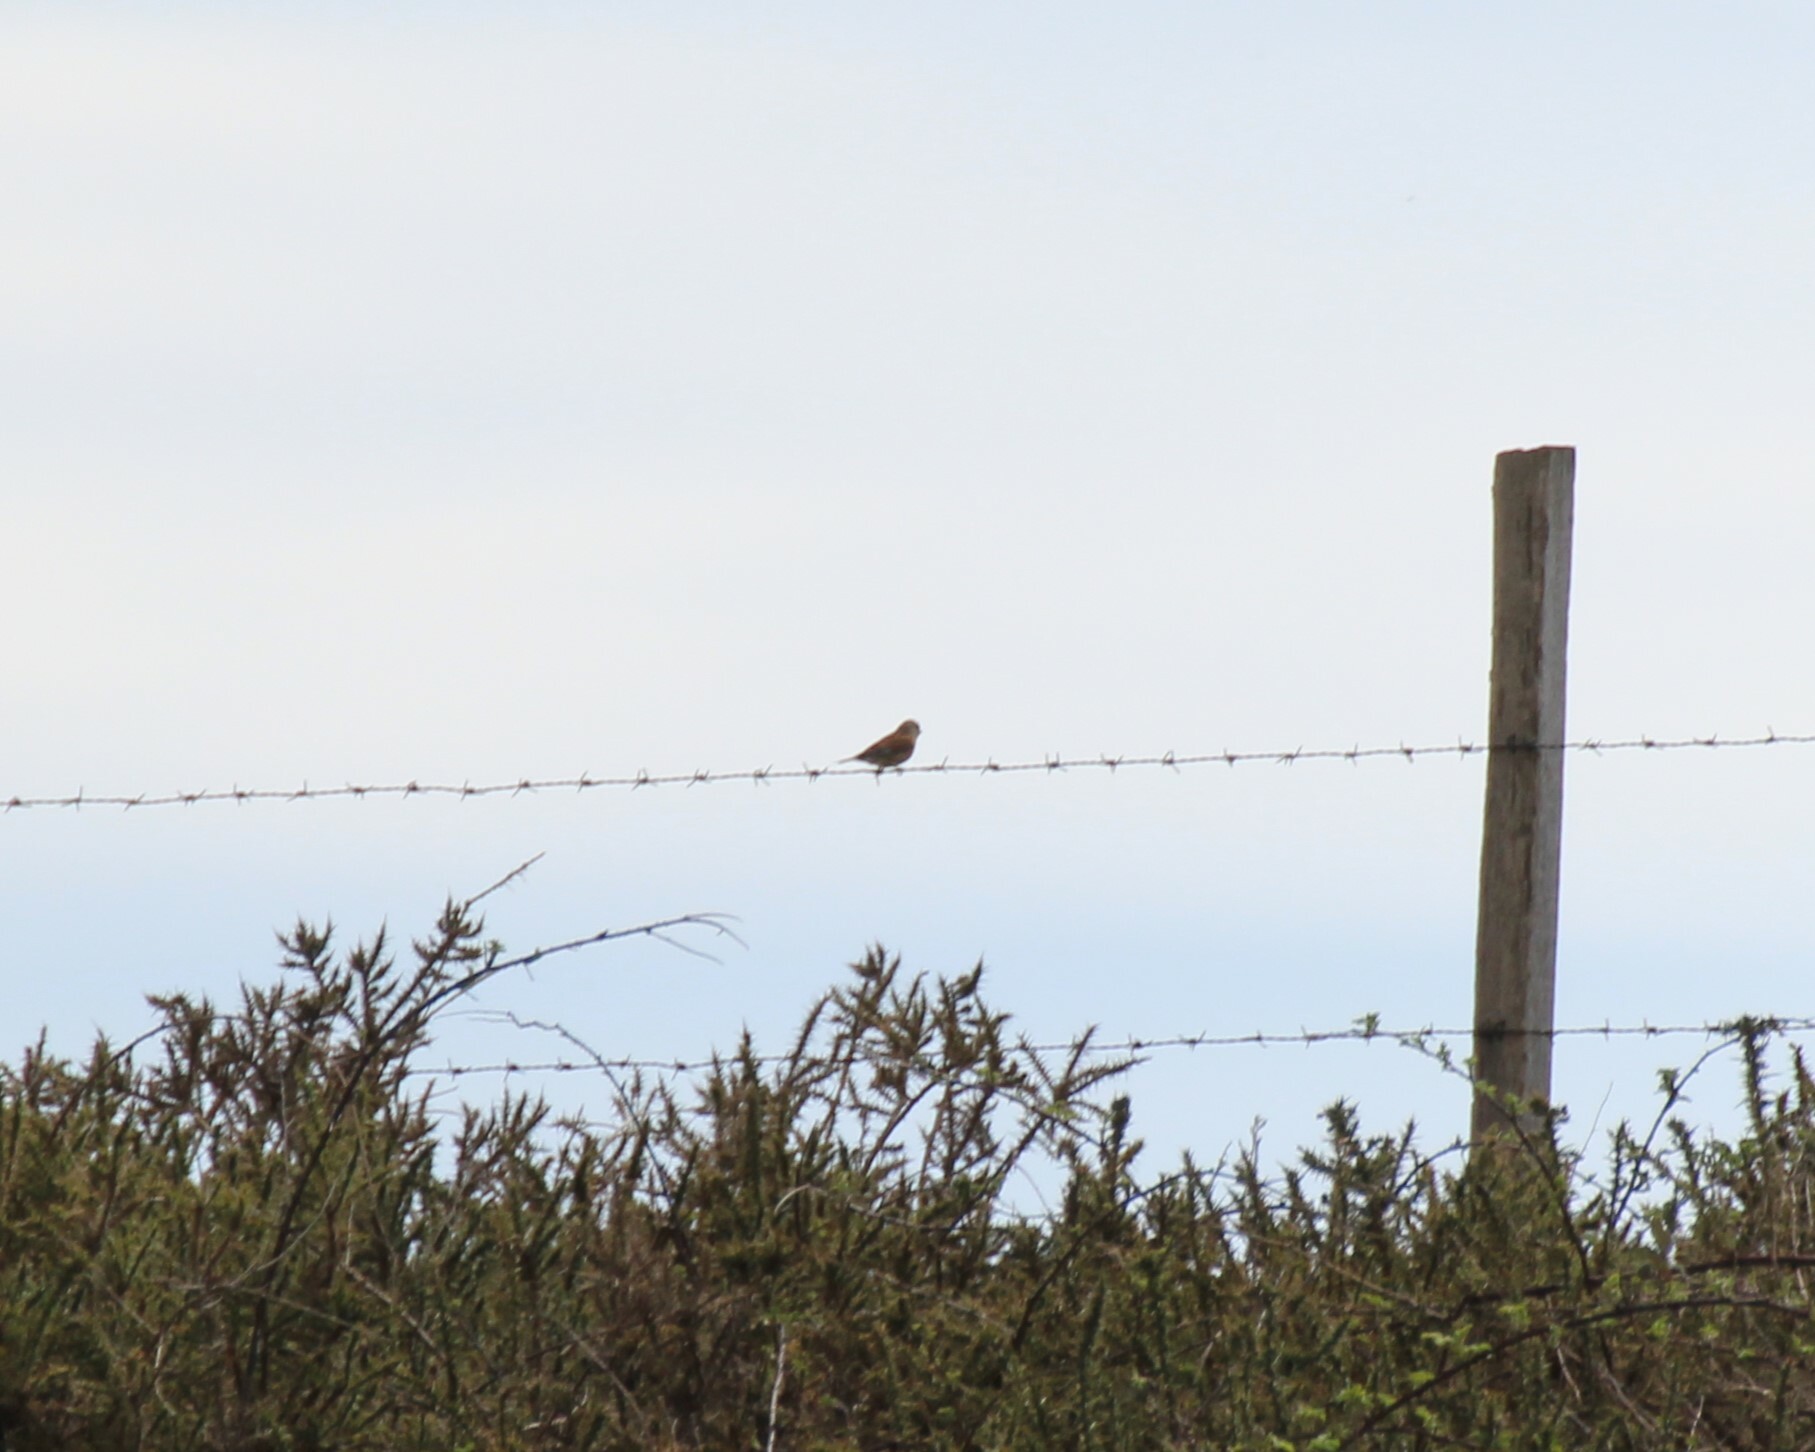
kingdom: Animalia
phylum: Chordata
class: Aves
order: Passeriformes
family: Fringillidae
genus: Linaria
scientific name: Linaria cannabina
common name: Common linnet
